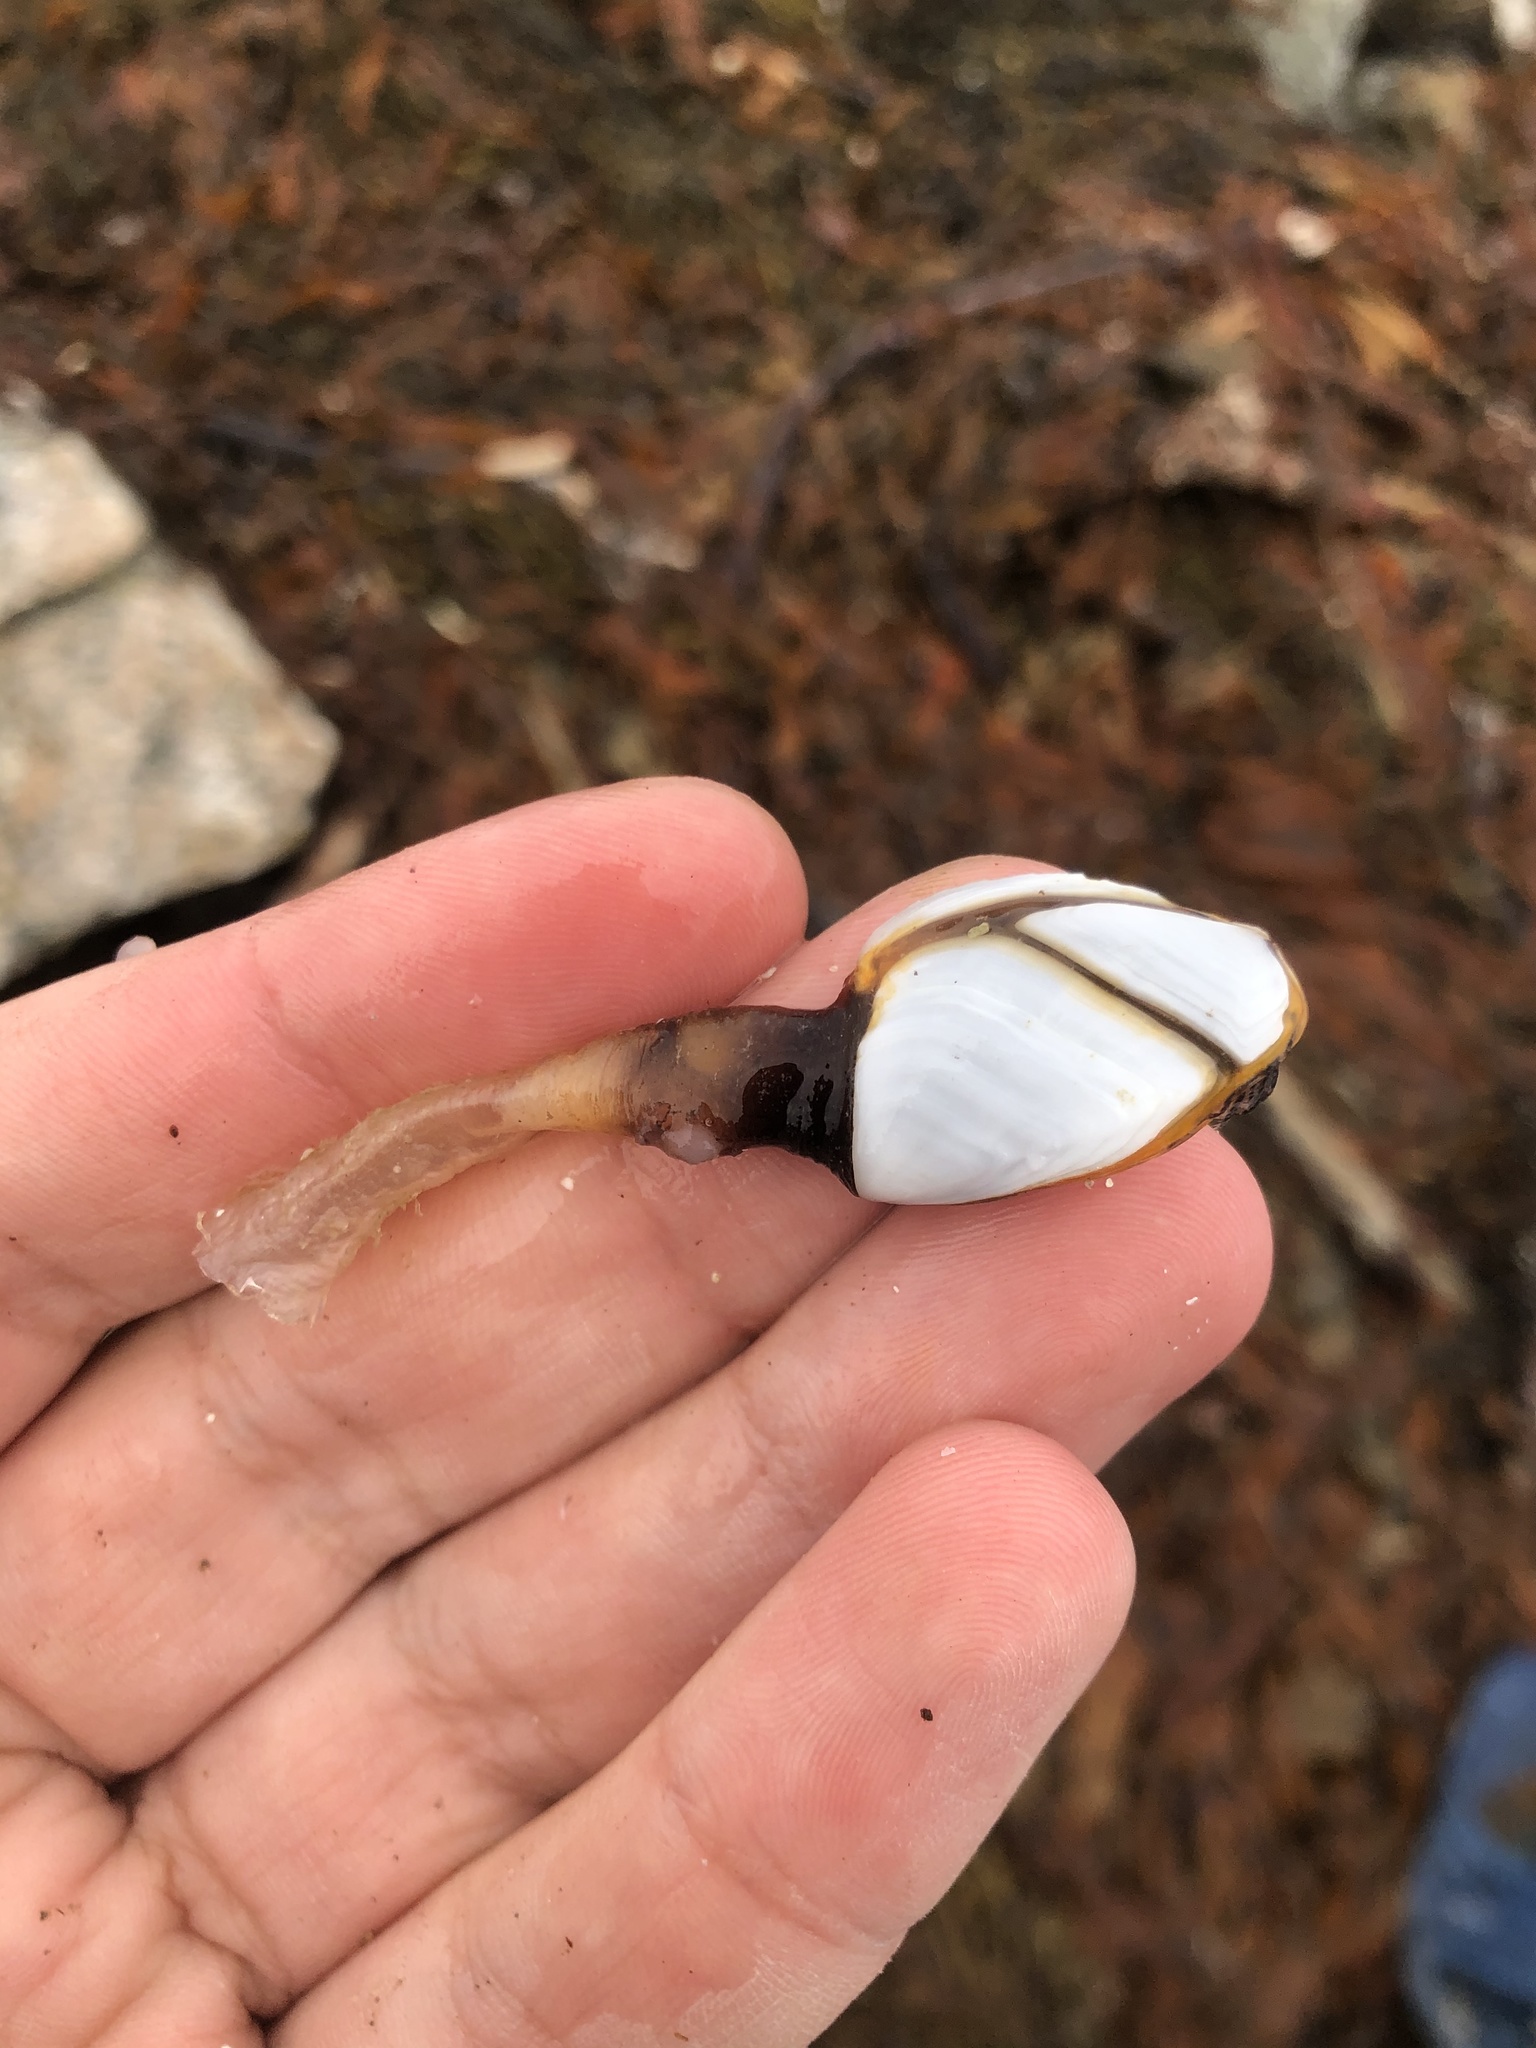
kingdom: Animalia
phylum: Arthropoda
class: Maxillopoda
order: Pedunculata
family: Lepadidae
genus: Lepas
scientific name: Lepas anatifera
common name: Common goose barnacle
